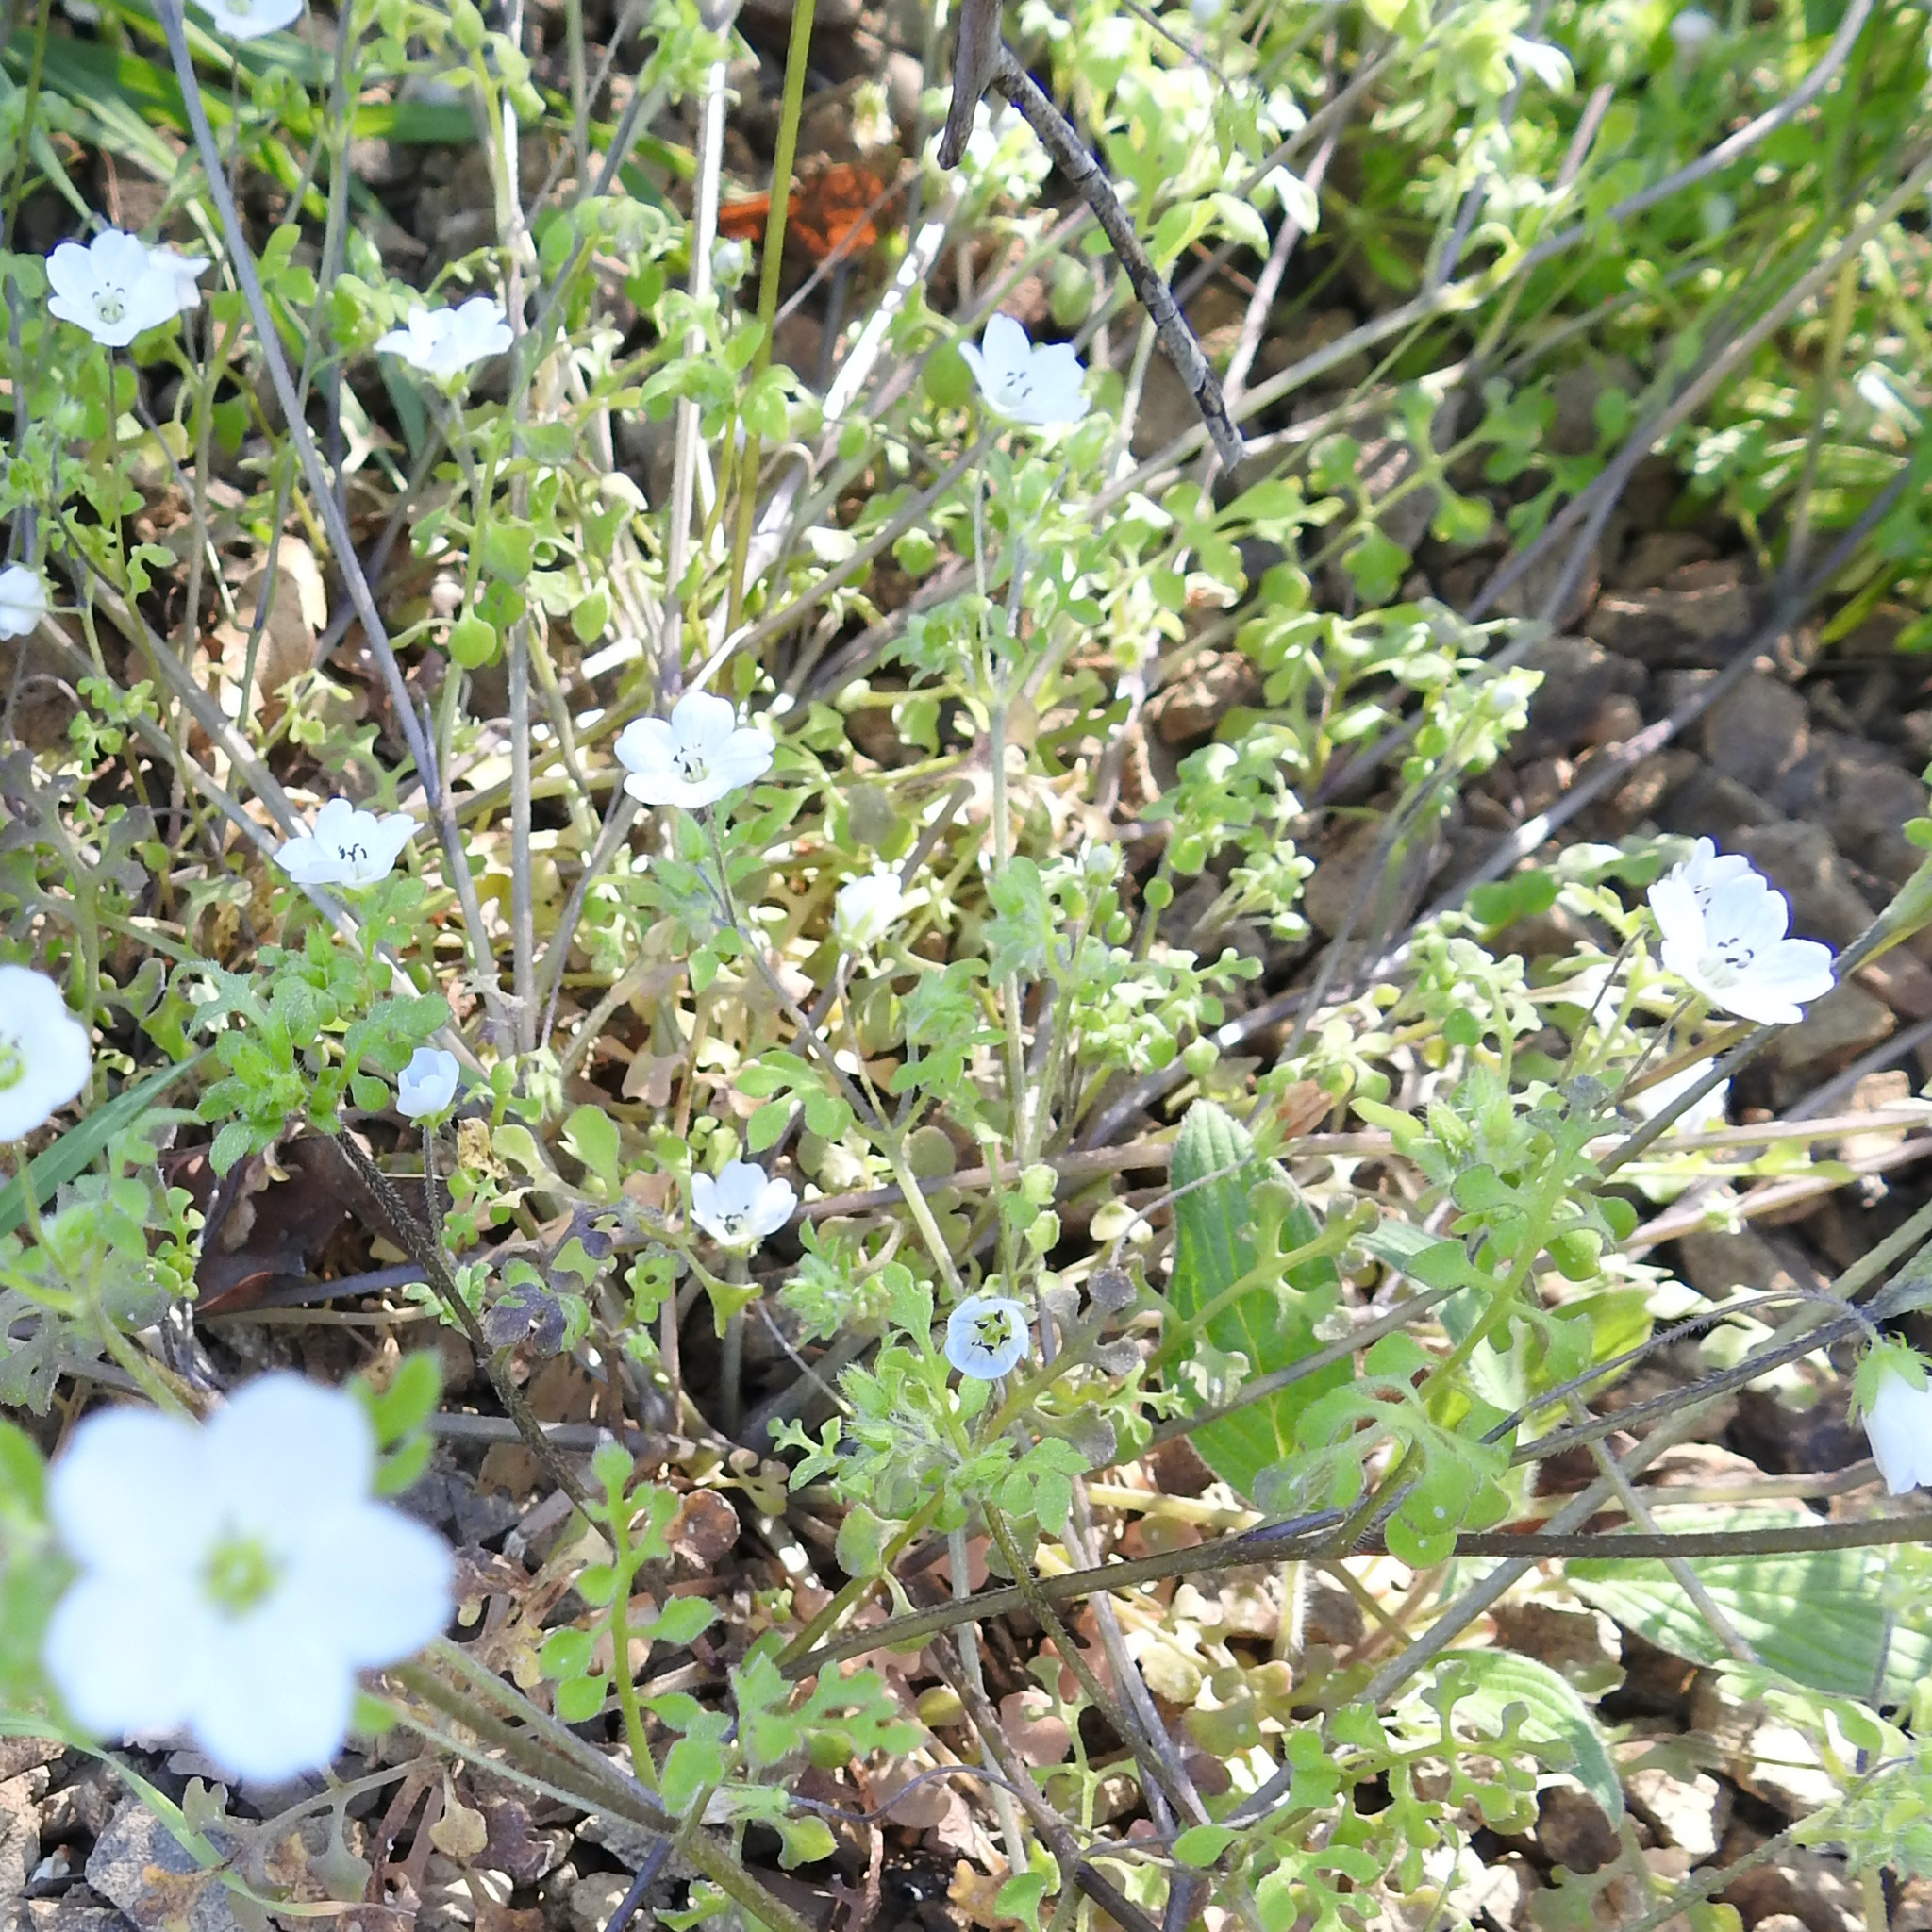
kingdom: Plantae
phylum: Tracheophyta
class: Magnoliopsida
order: Boraginales
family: Hydrophyllaceae
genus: Nemophila
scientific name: Nemophila heterophylla
